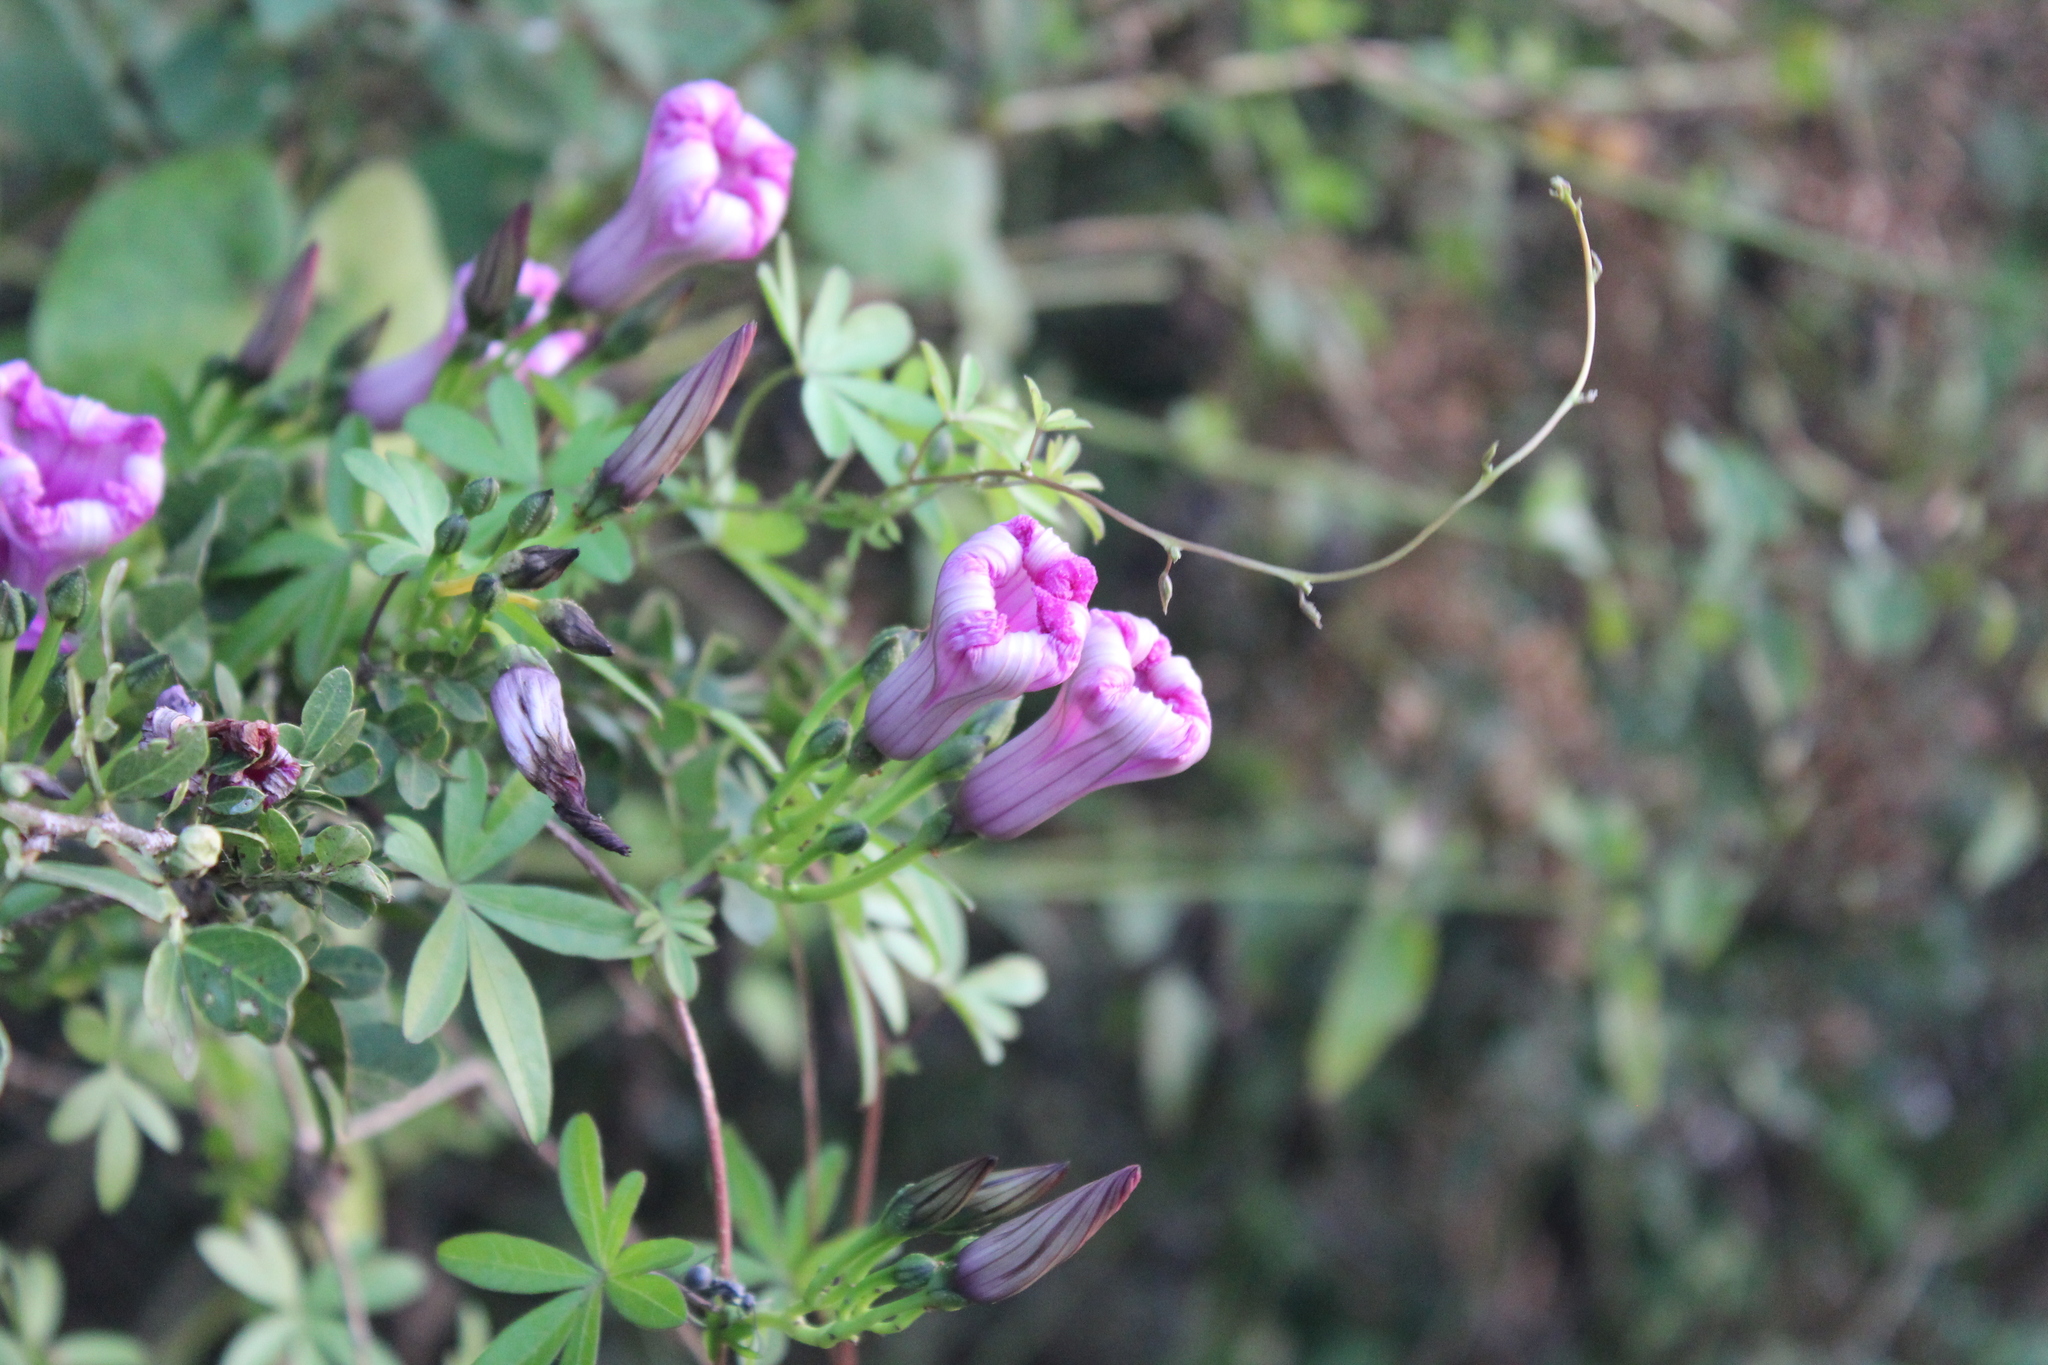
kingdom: Plantae
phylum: Tracheophyta
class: Magnoliopsida
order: Solanales
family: Convolvulaceae
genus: Ipomoea
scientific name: Ipomoea cairica
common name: Mile a minute vine
